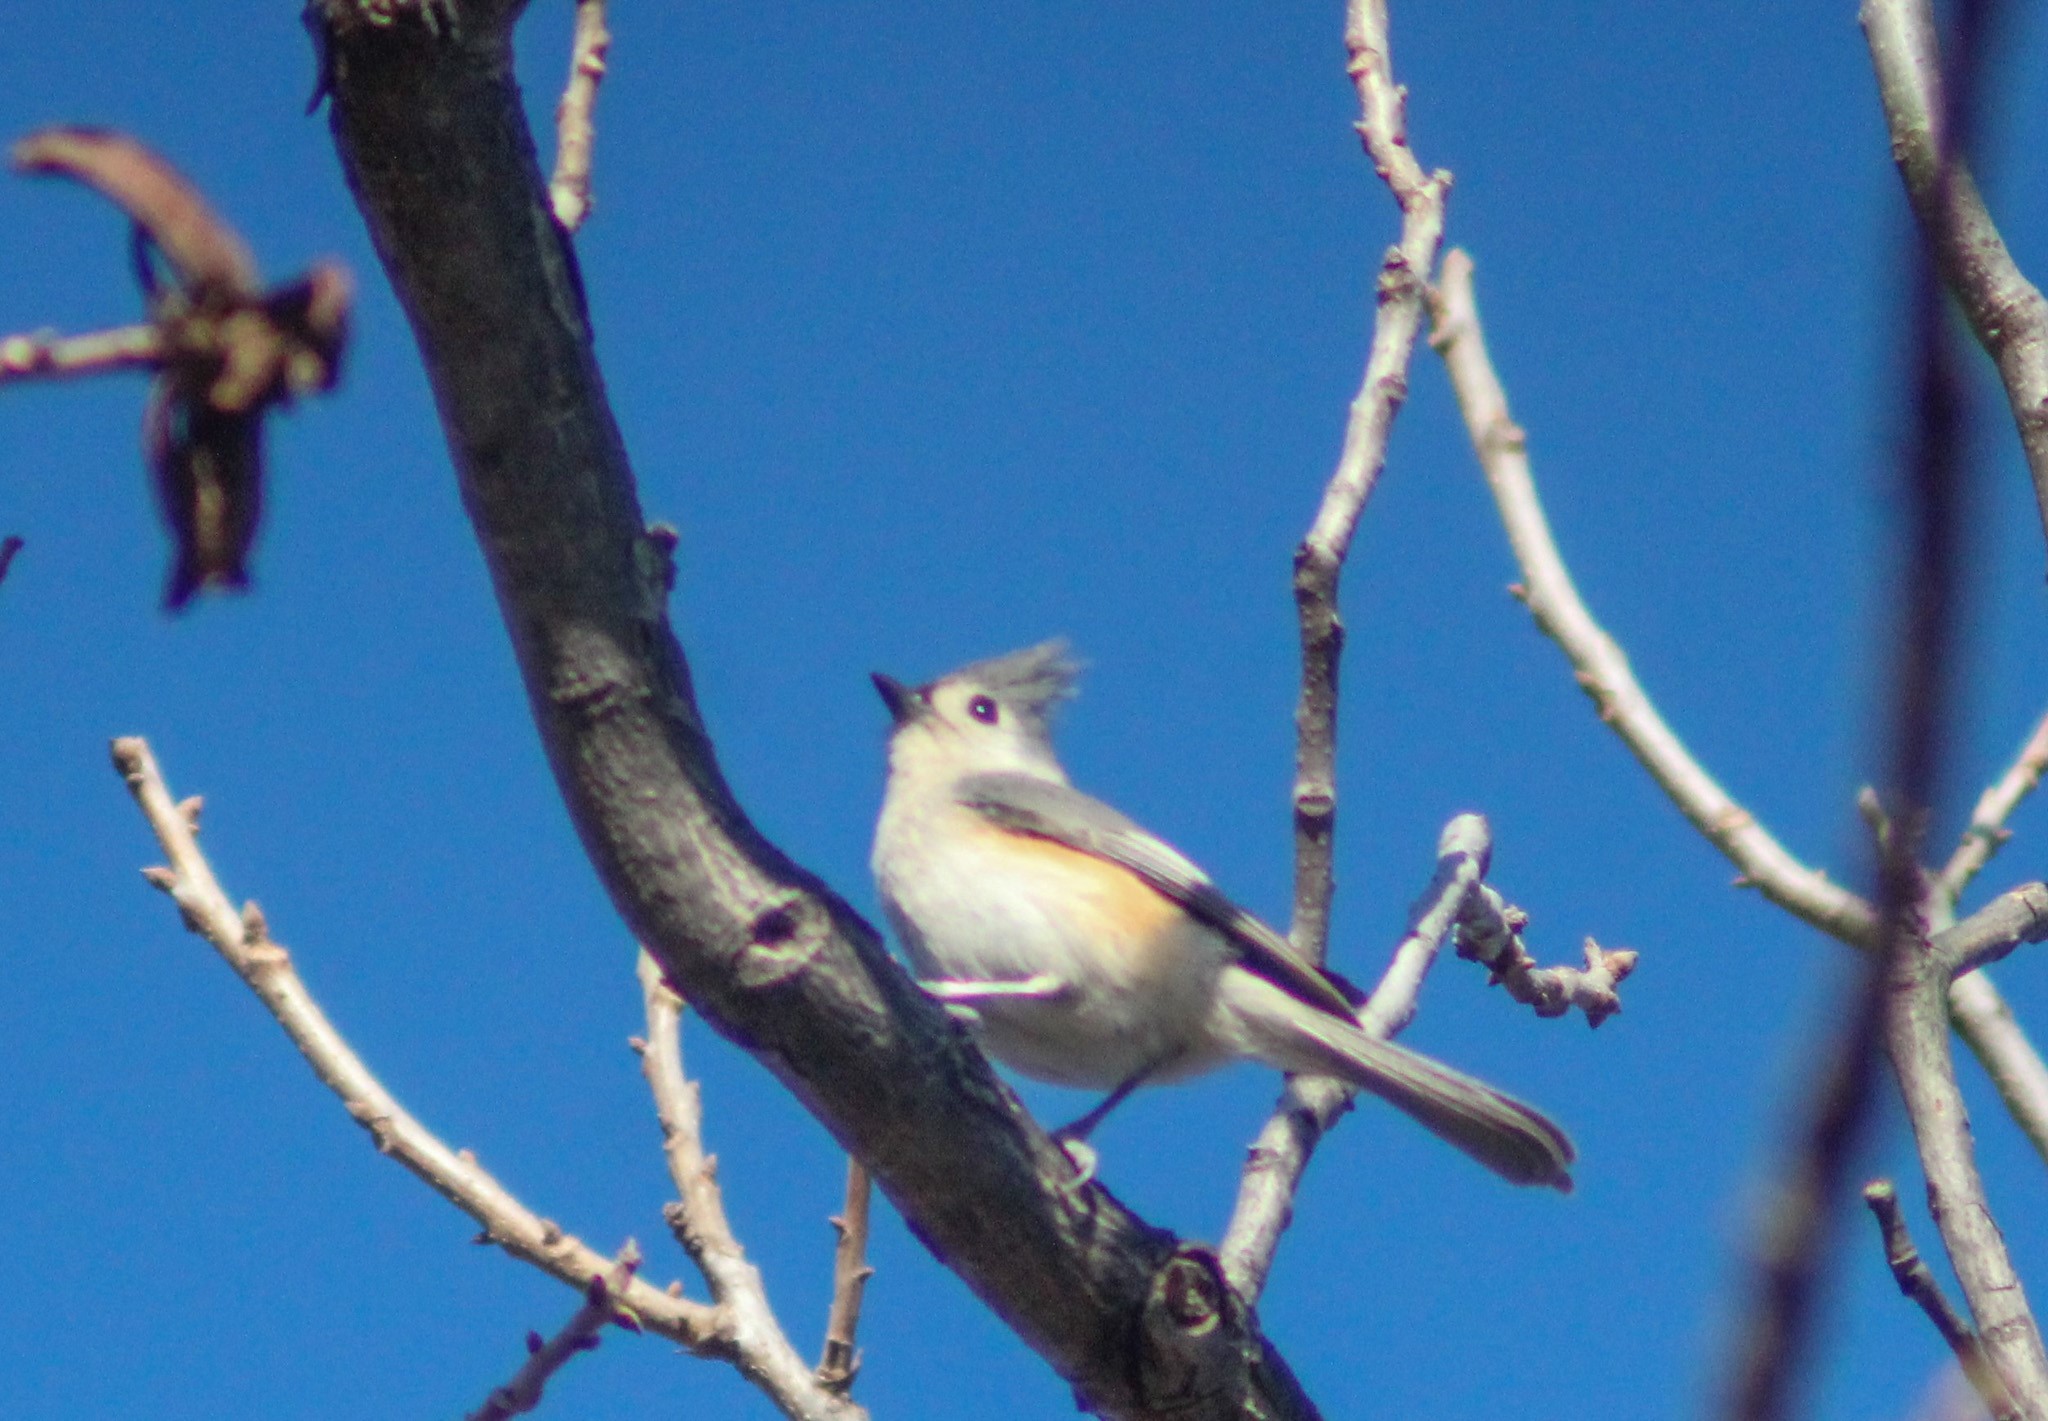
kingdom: Animalia
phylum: Chordata
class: Aves
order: Passeriformes
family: Paridae
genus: Baeolophus
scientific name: Baeolophus bicolor
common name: Tufted titmouse
